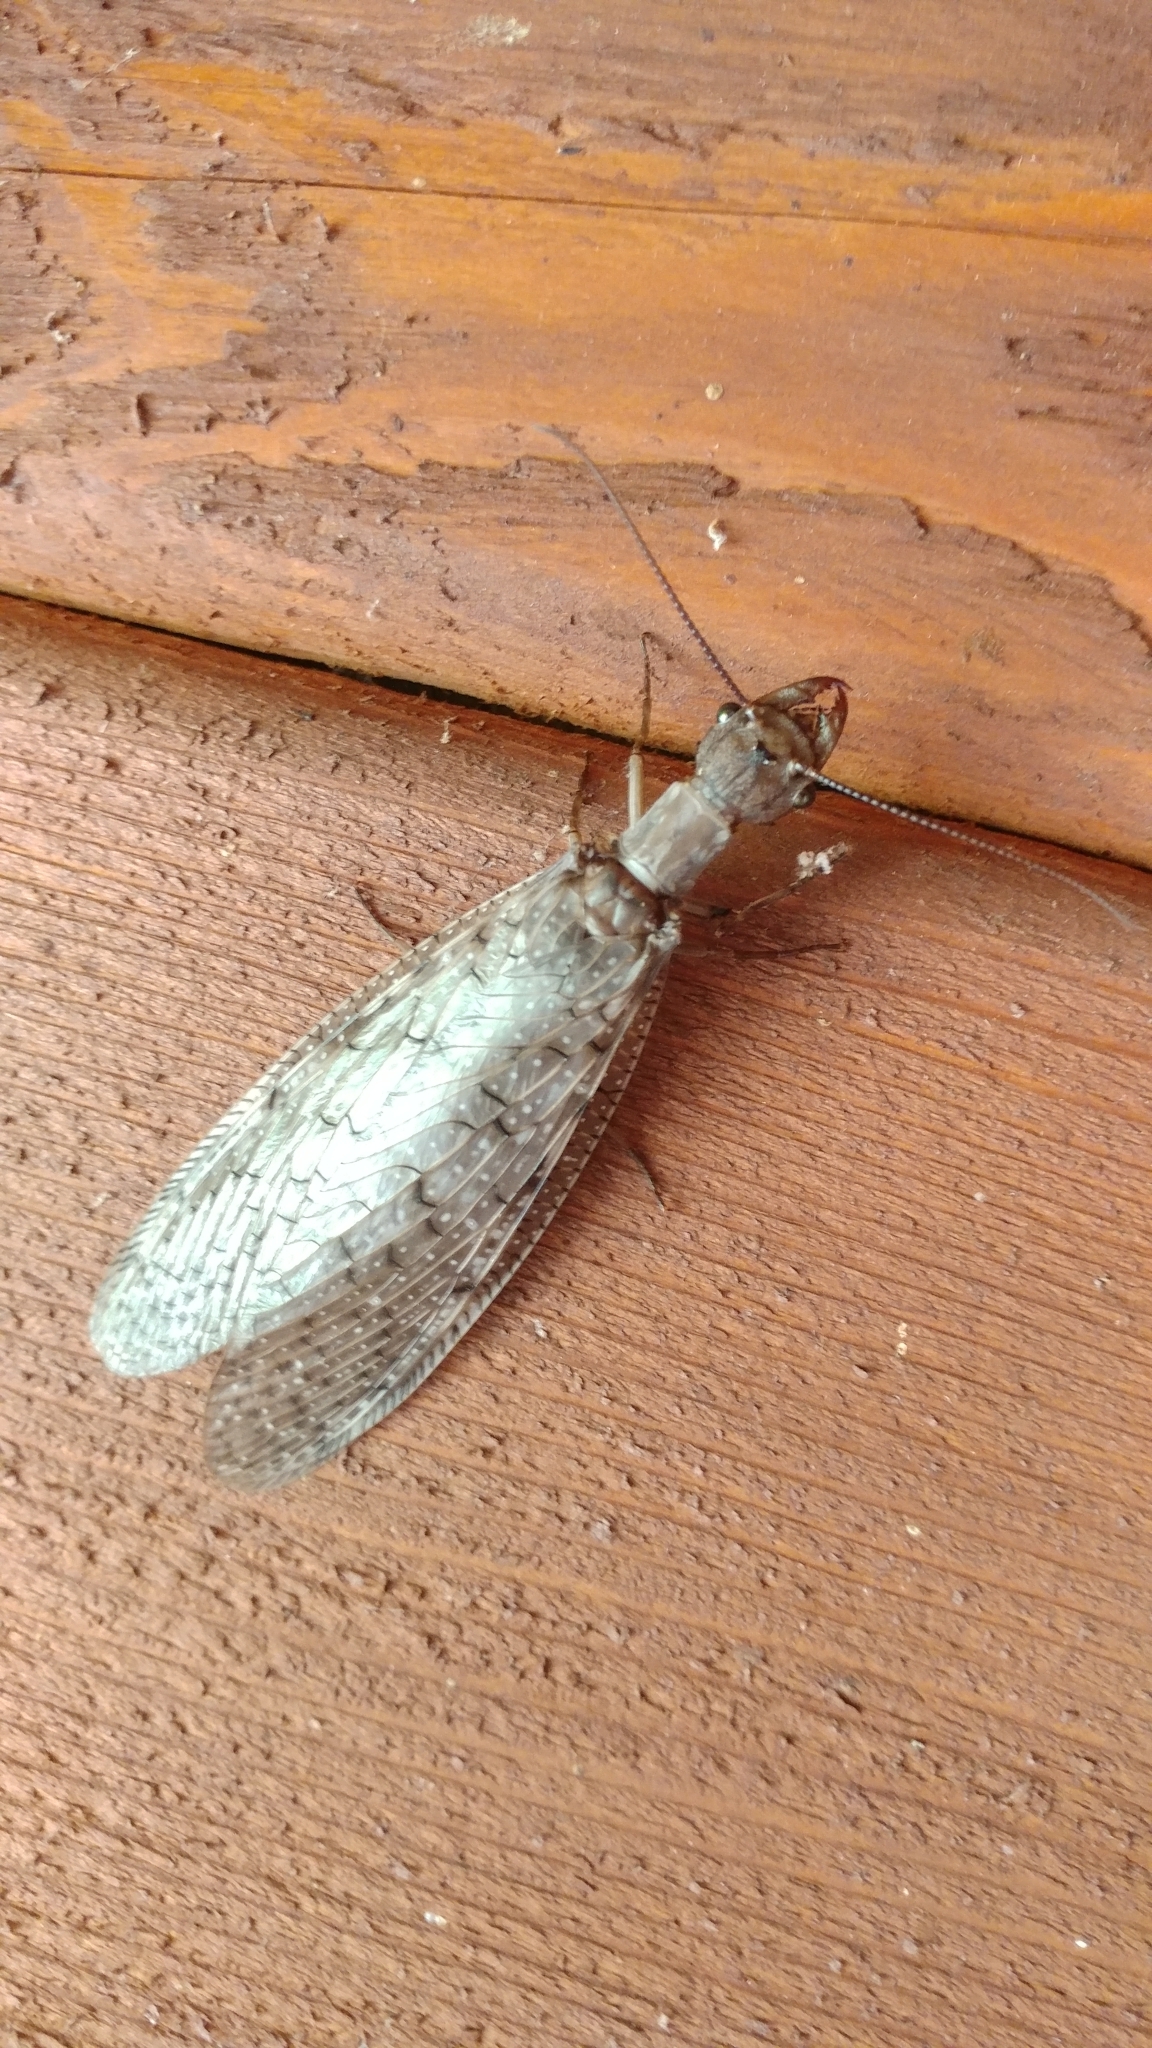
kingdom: Animalia
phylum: Arthropoda
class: Insecta
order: Megaloptera
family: Corydalidae
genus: Corydalus
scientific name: Corydalus cornutus
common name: Dobsonfly
